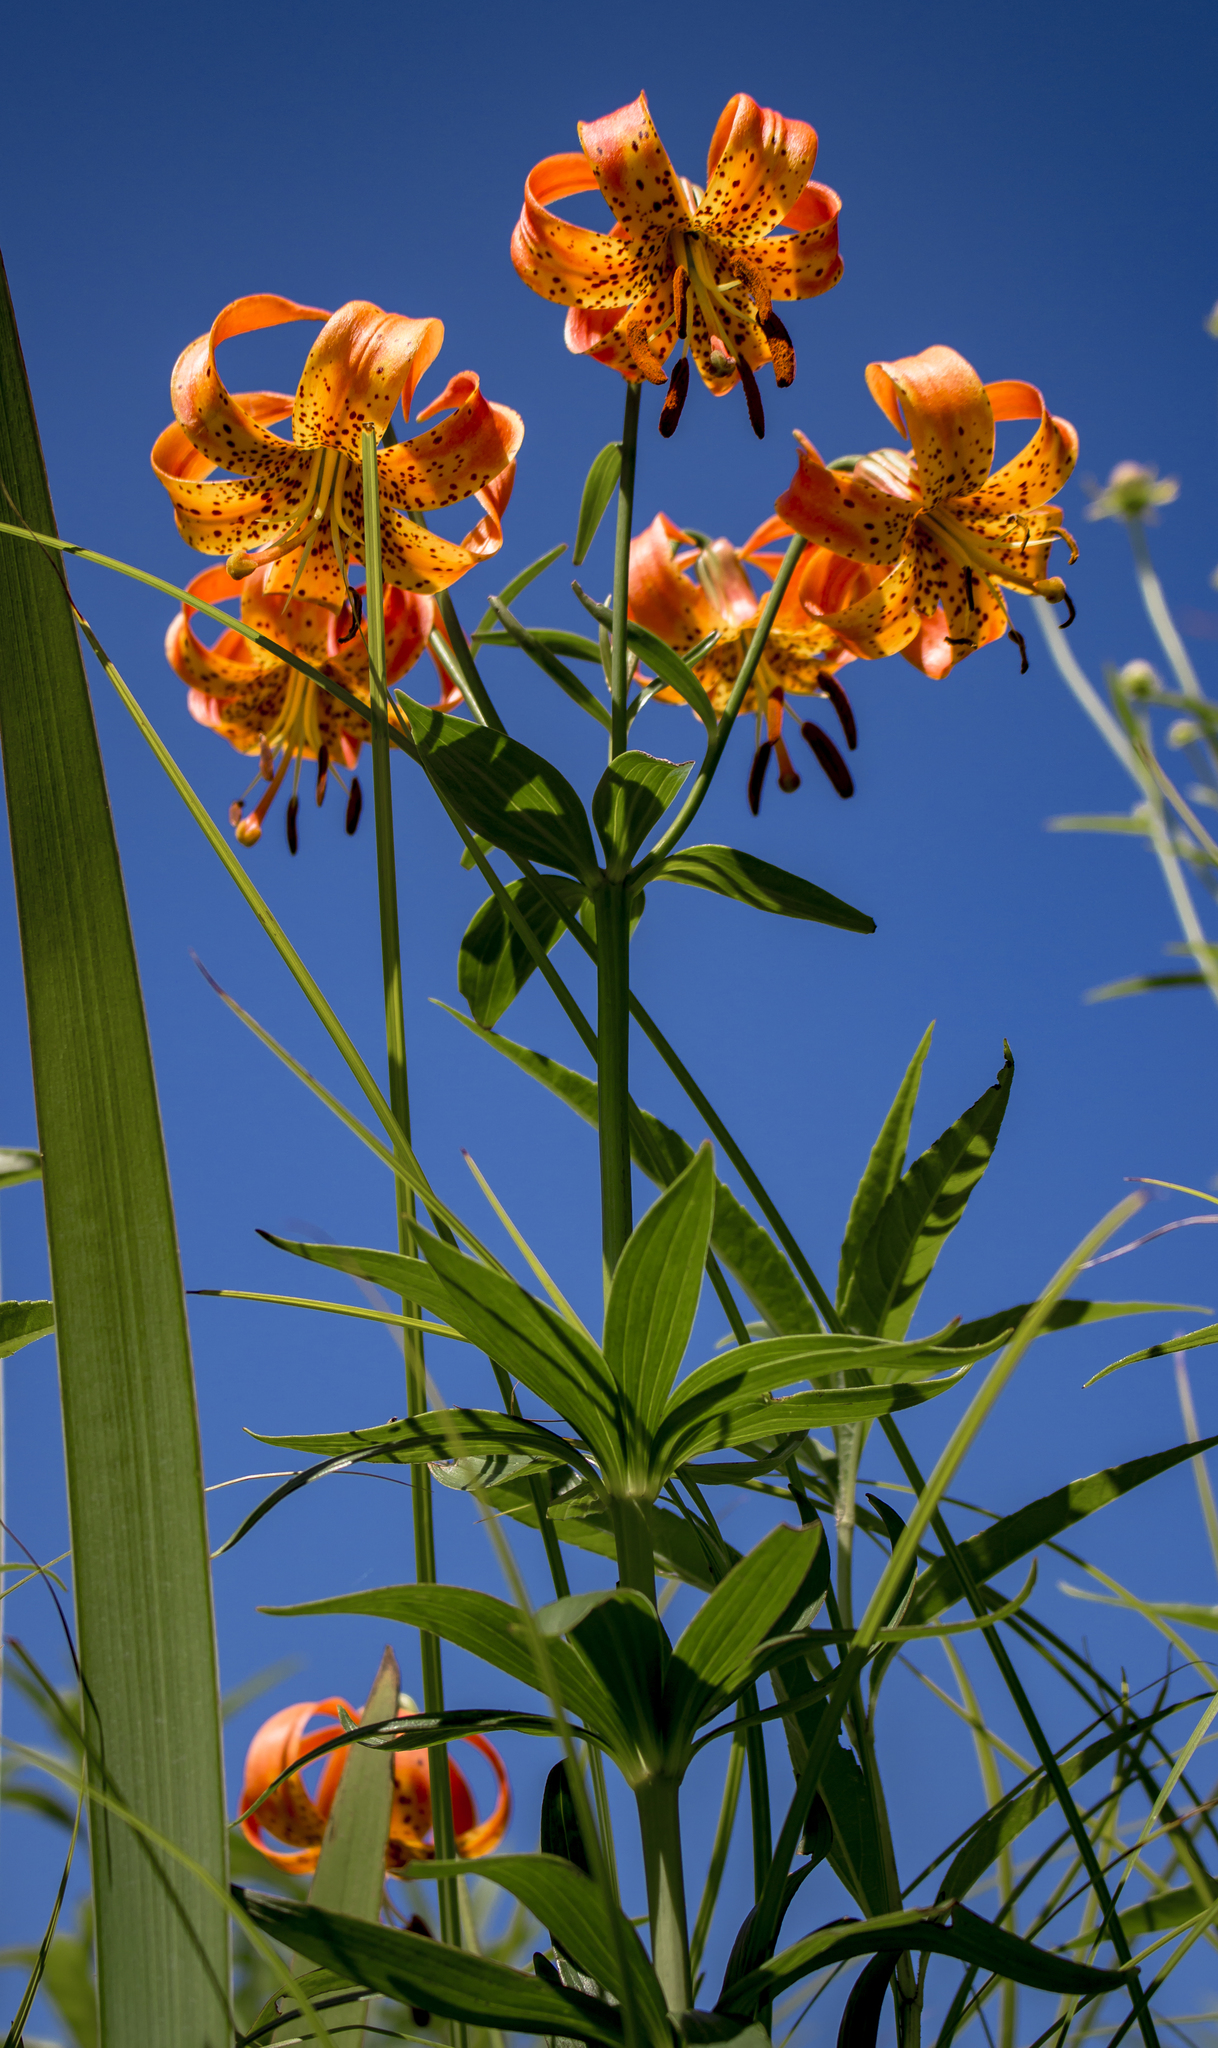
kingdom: Plantae
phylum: Tracheophyta
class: Liliopsida
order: Liliales
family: Liliaceae
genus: Lilium
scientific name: Lilium michiganense
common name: Michigan lily
